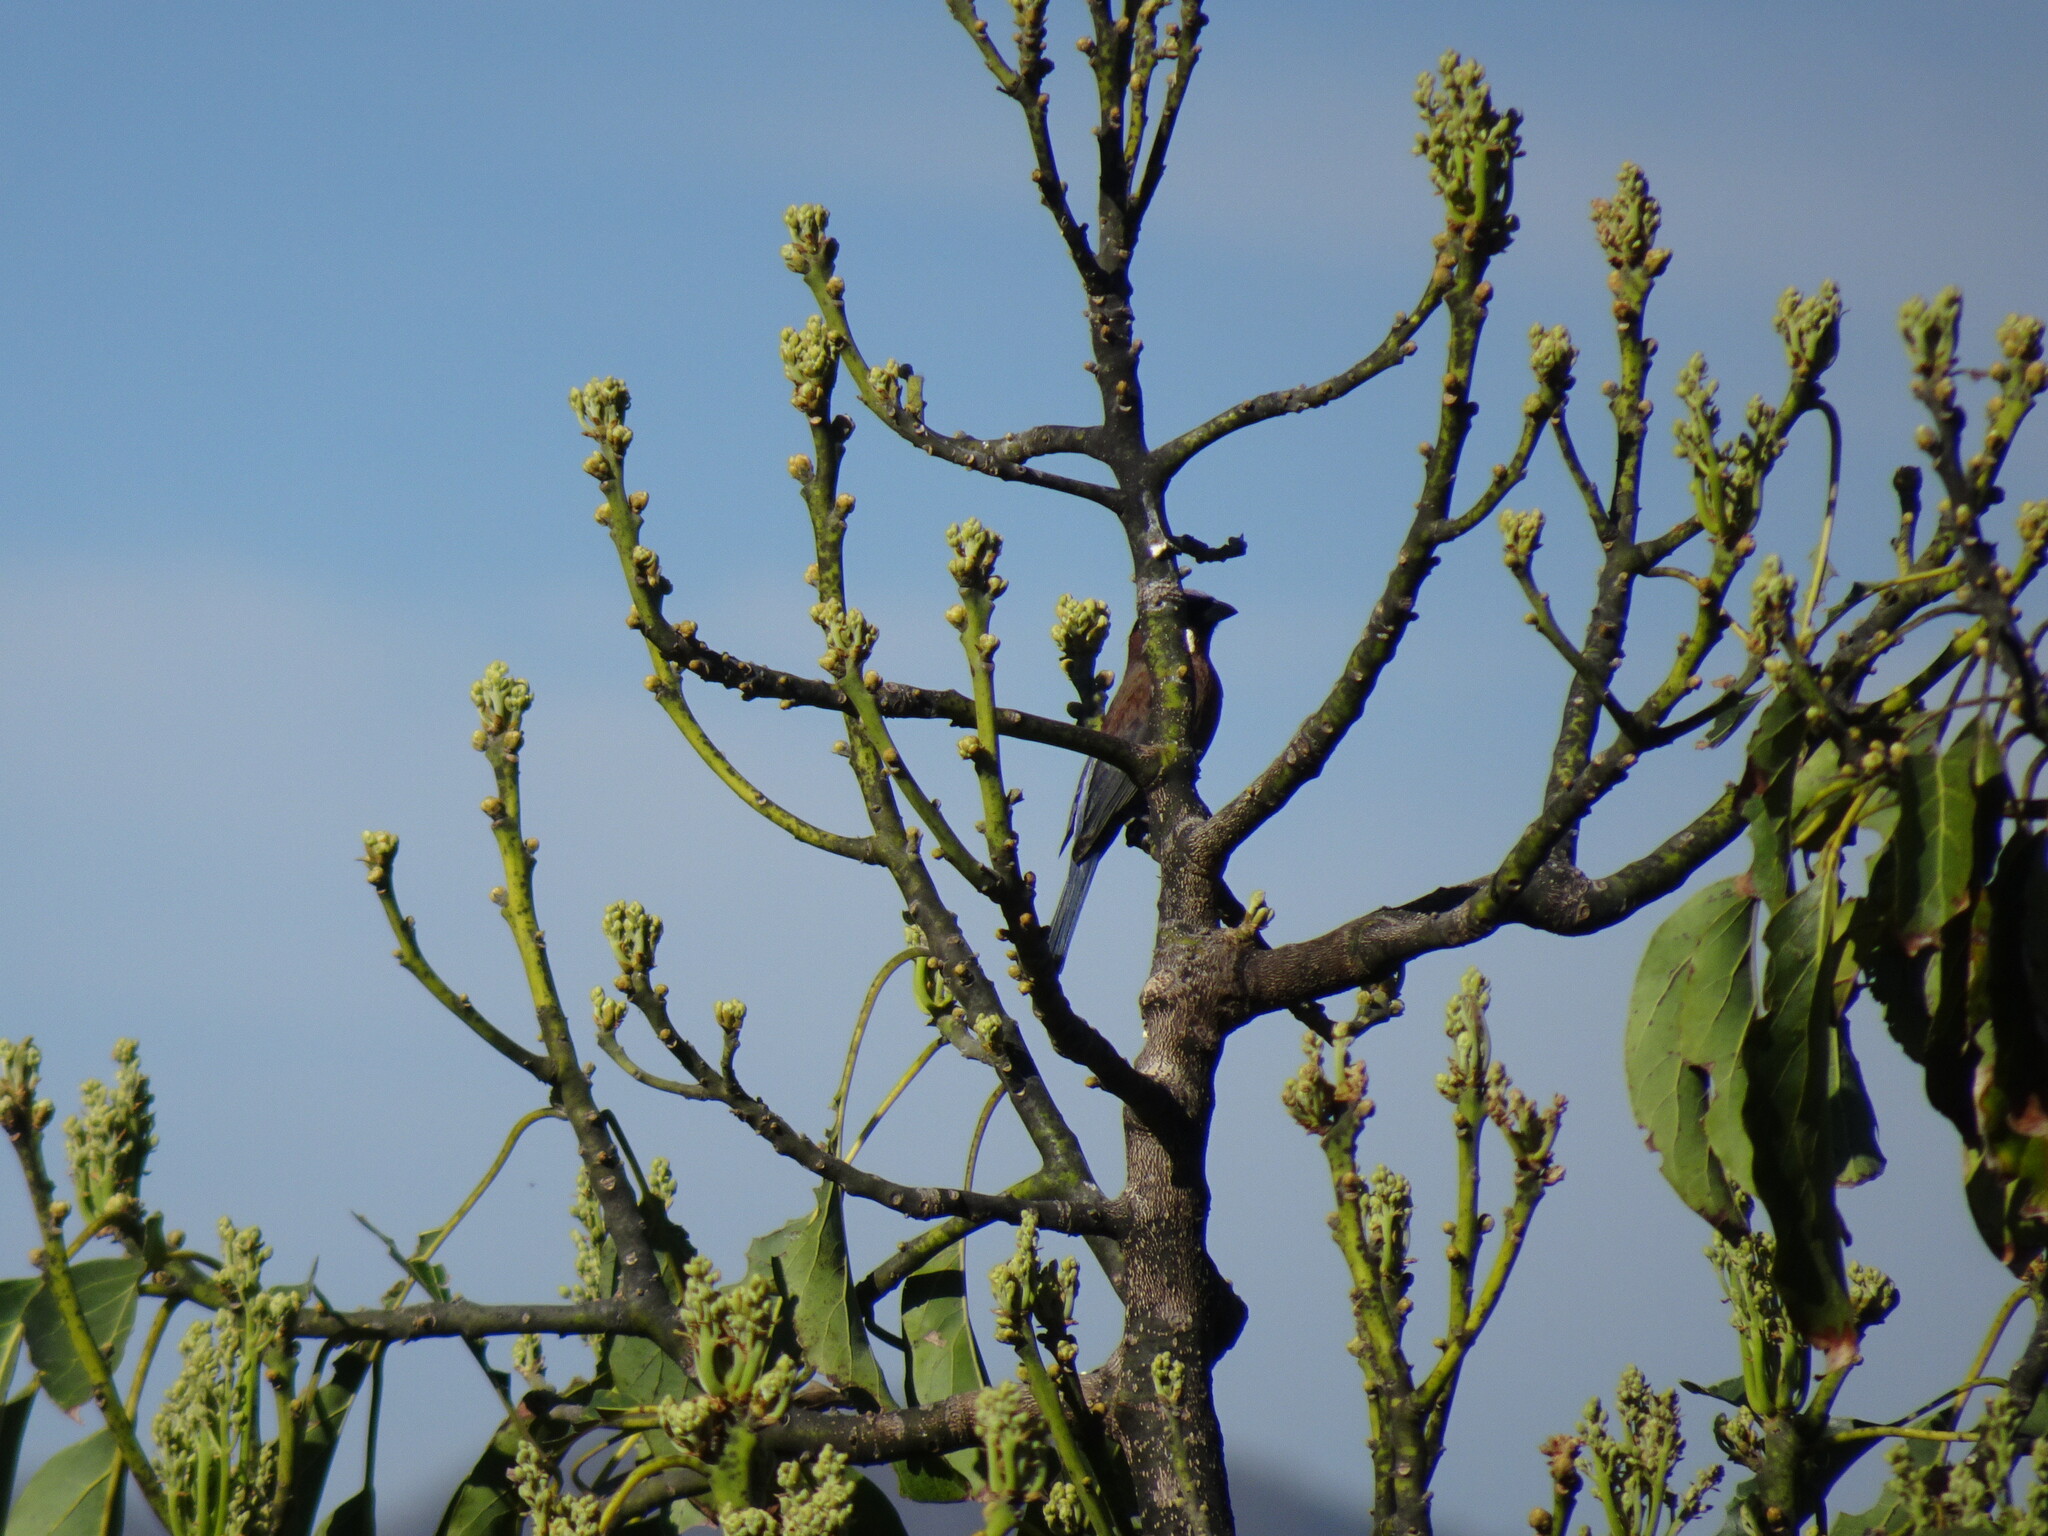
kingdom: Animalia
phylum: Chordata
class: Aves
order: Passeriformes
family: Cardinalidae
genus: Passerina
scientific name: Passerina versicolor
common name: Varied bunting
